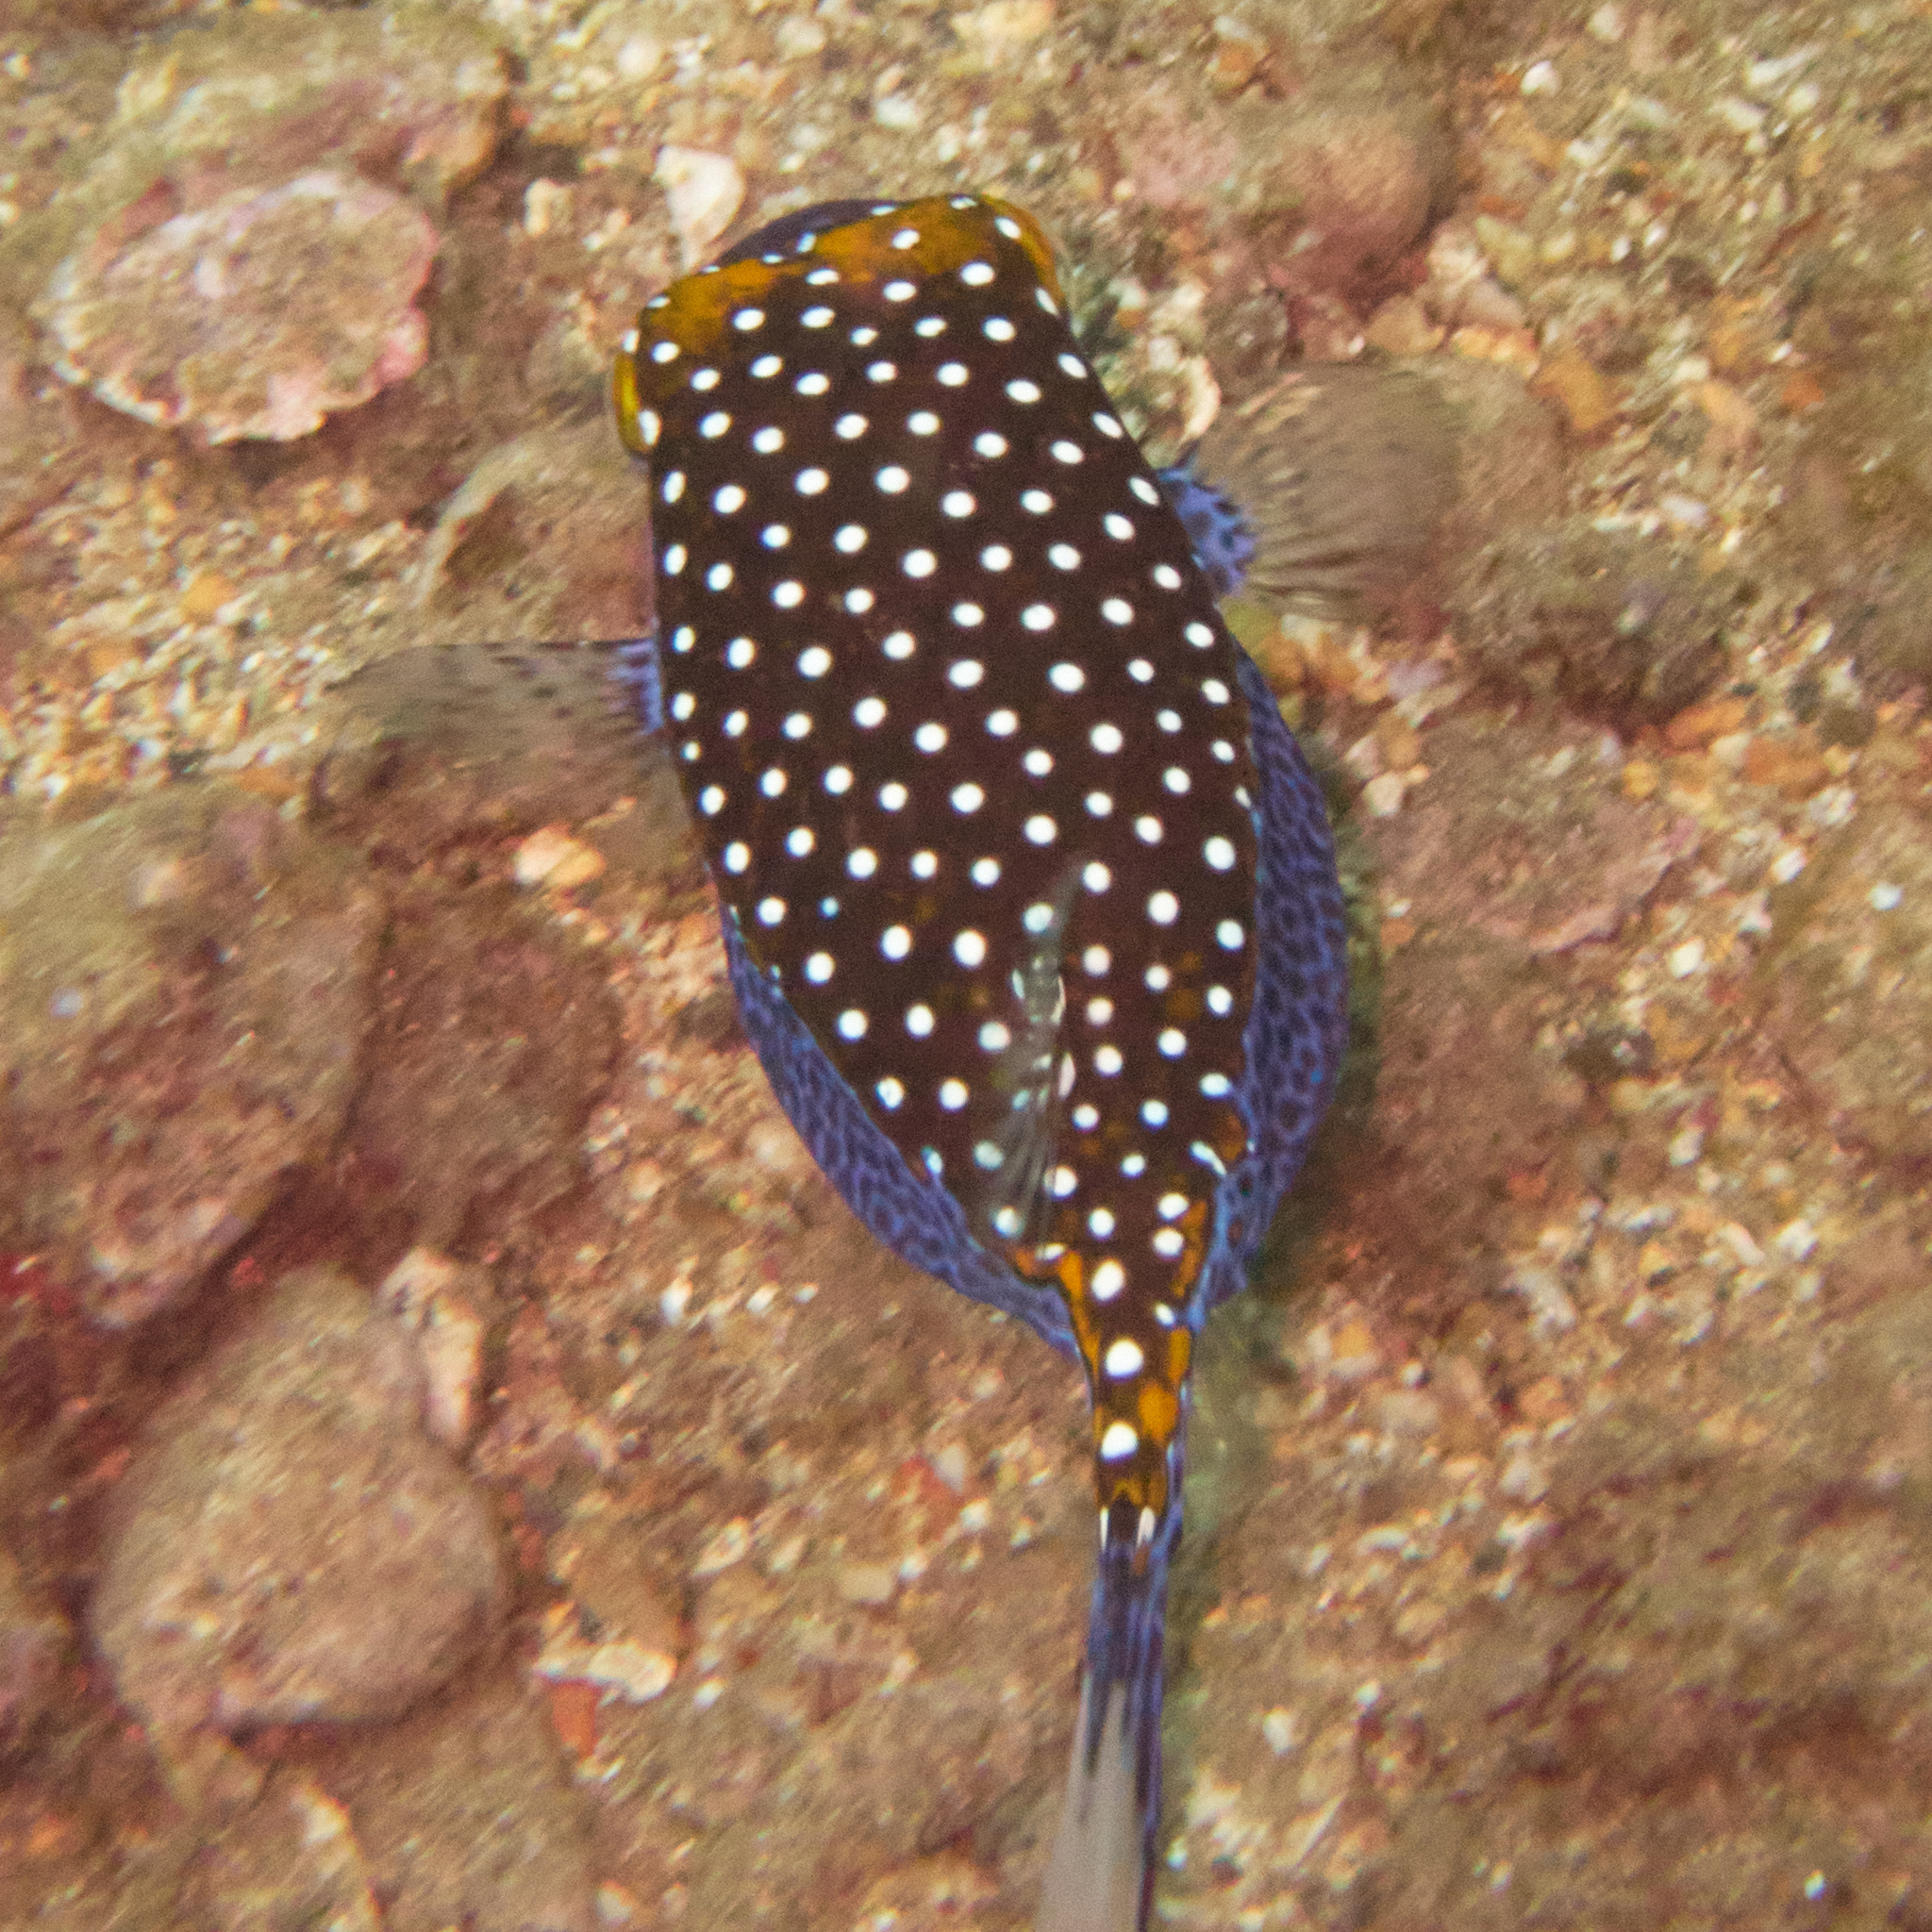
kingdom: Animalia
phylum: Chordata
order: Tetraodontiformes
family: Ostraciidae
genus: Ostracion
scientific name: Ostracion meleagris
